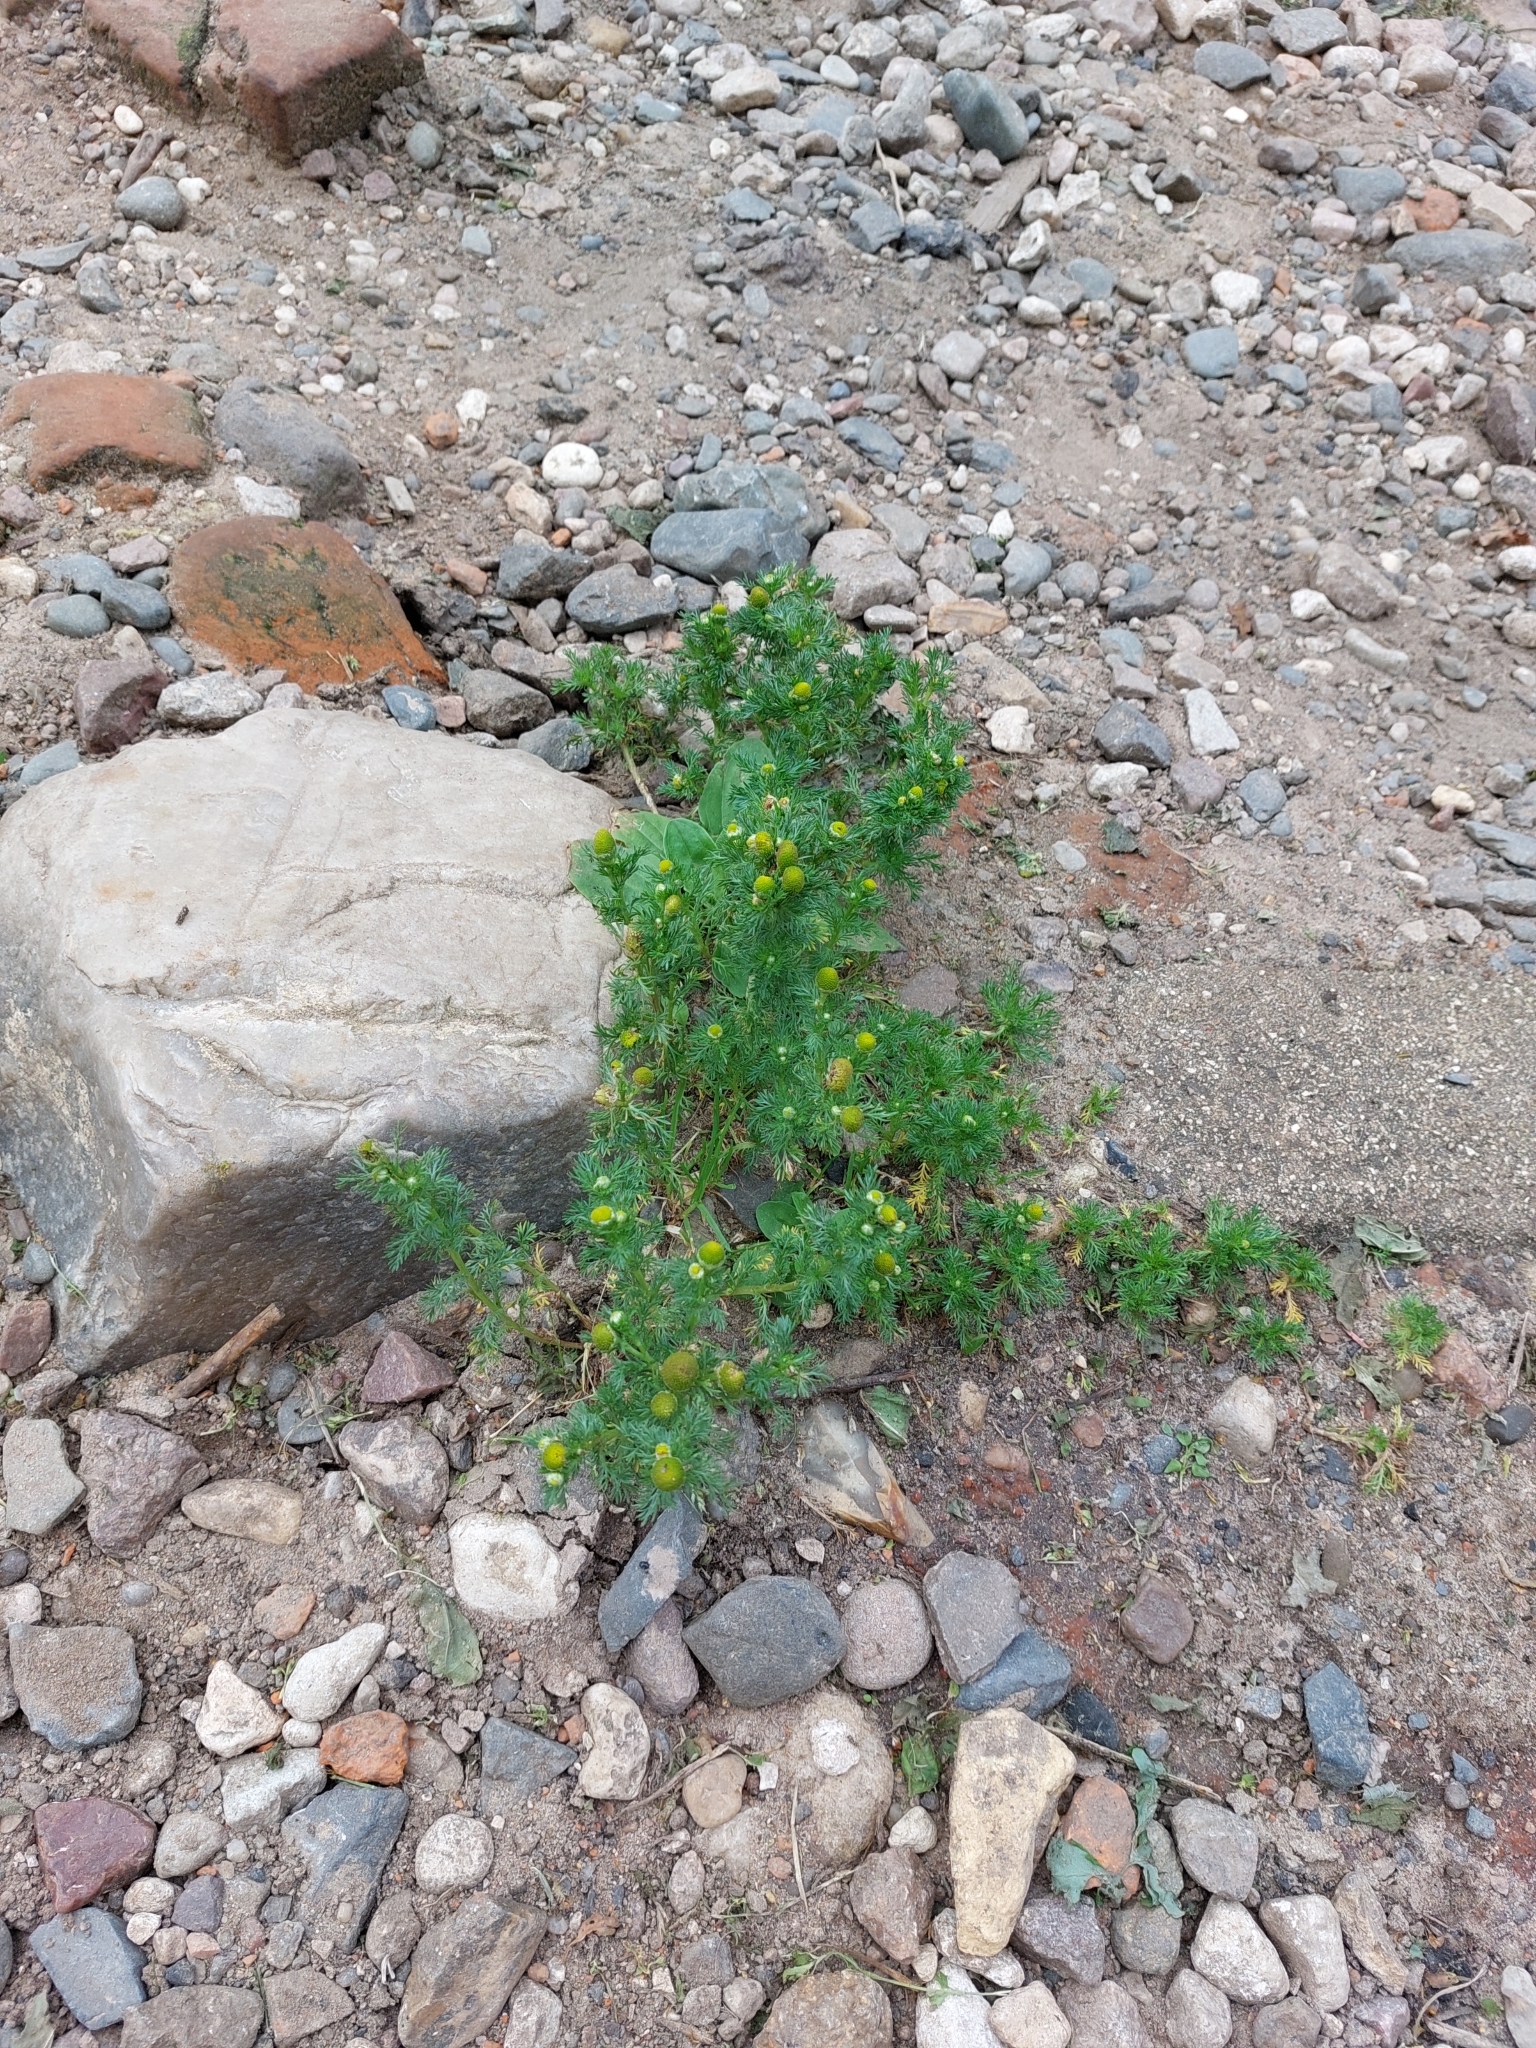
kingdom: Plantae
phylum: Tracheophyta
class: Magnoliopsida
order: Asterales
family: Asteraceae
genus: Matricaria
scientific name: Matricaria discoidea
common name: Disc mayweed
